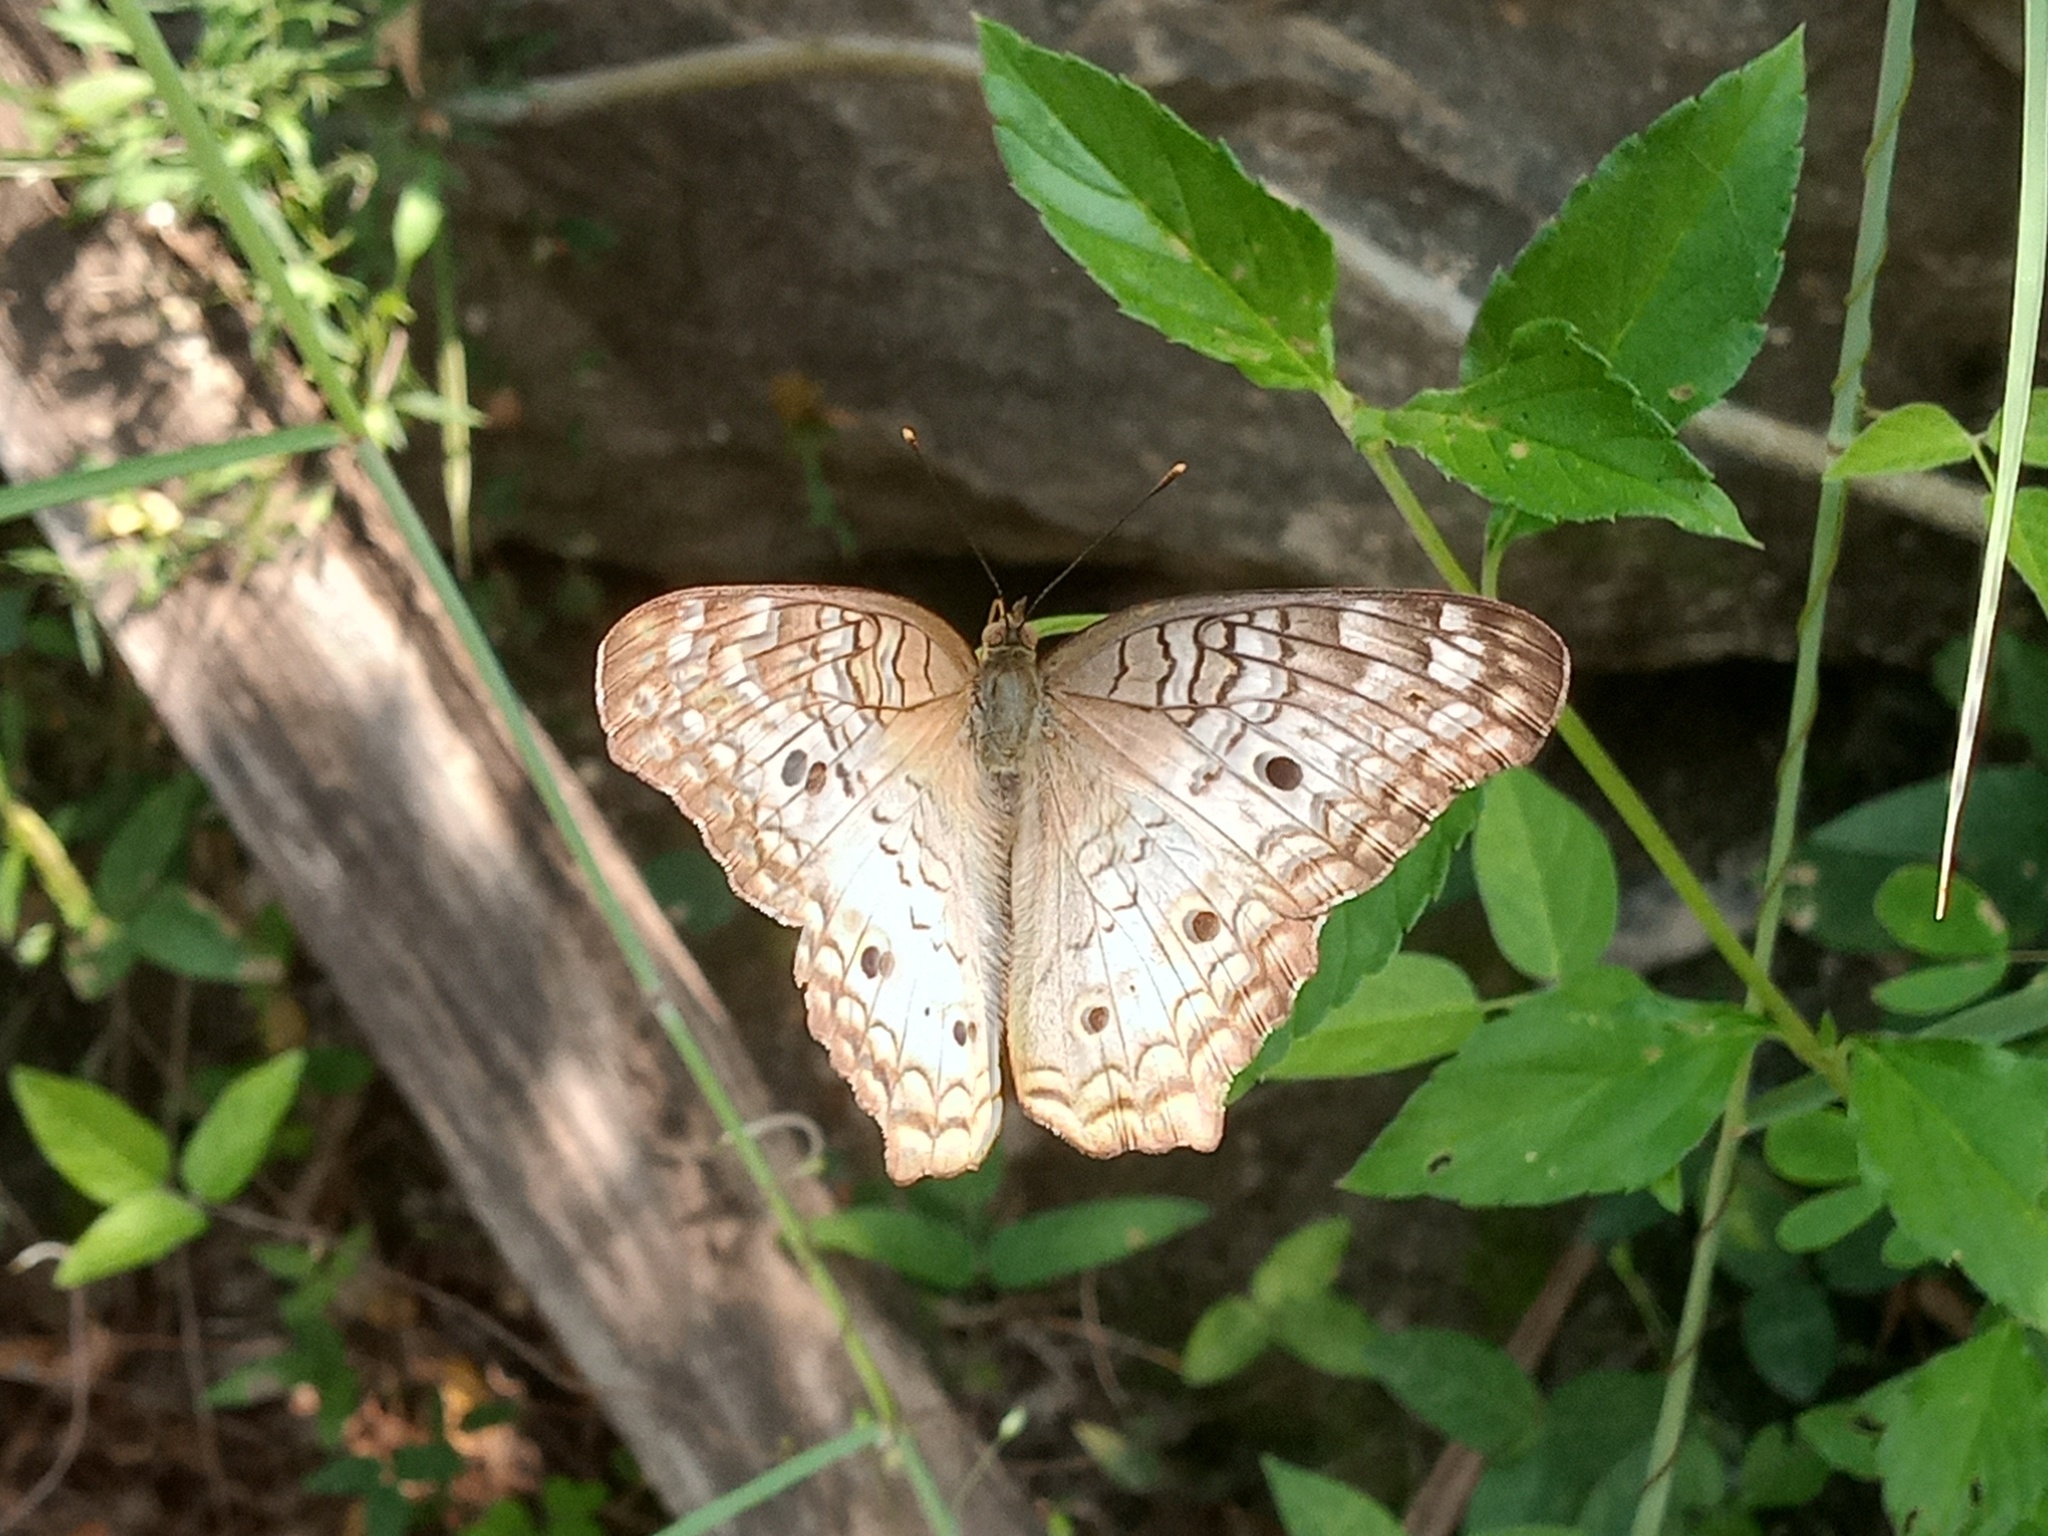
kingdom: Animalia
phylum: Arthropoda
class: Insecta
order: Lepidoptera
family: Nymphalidae
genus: Anartia
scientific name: Anartia jatrophae
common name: White peacock
